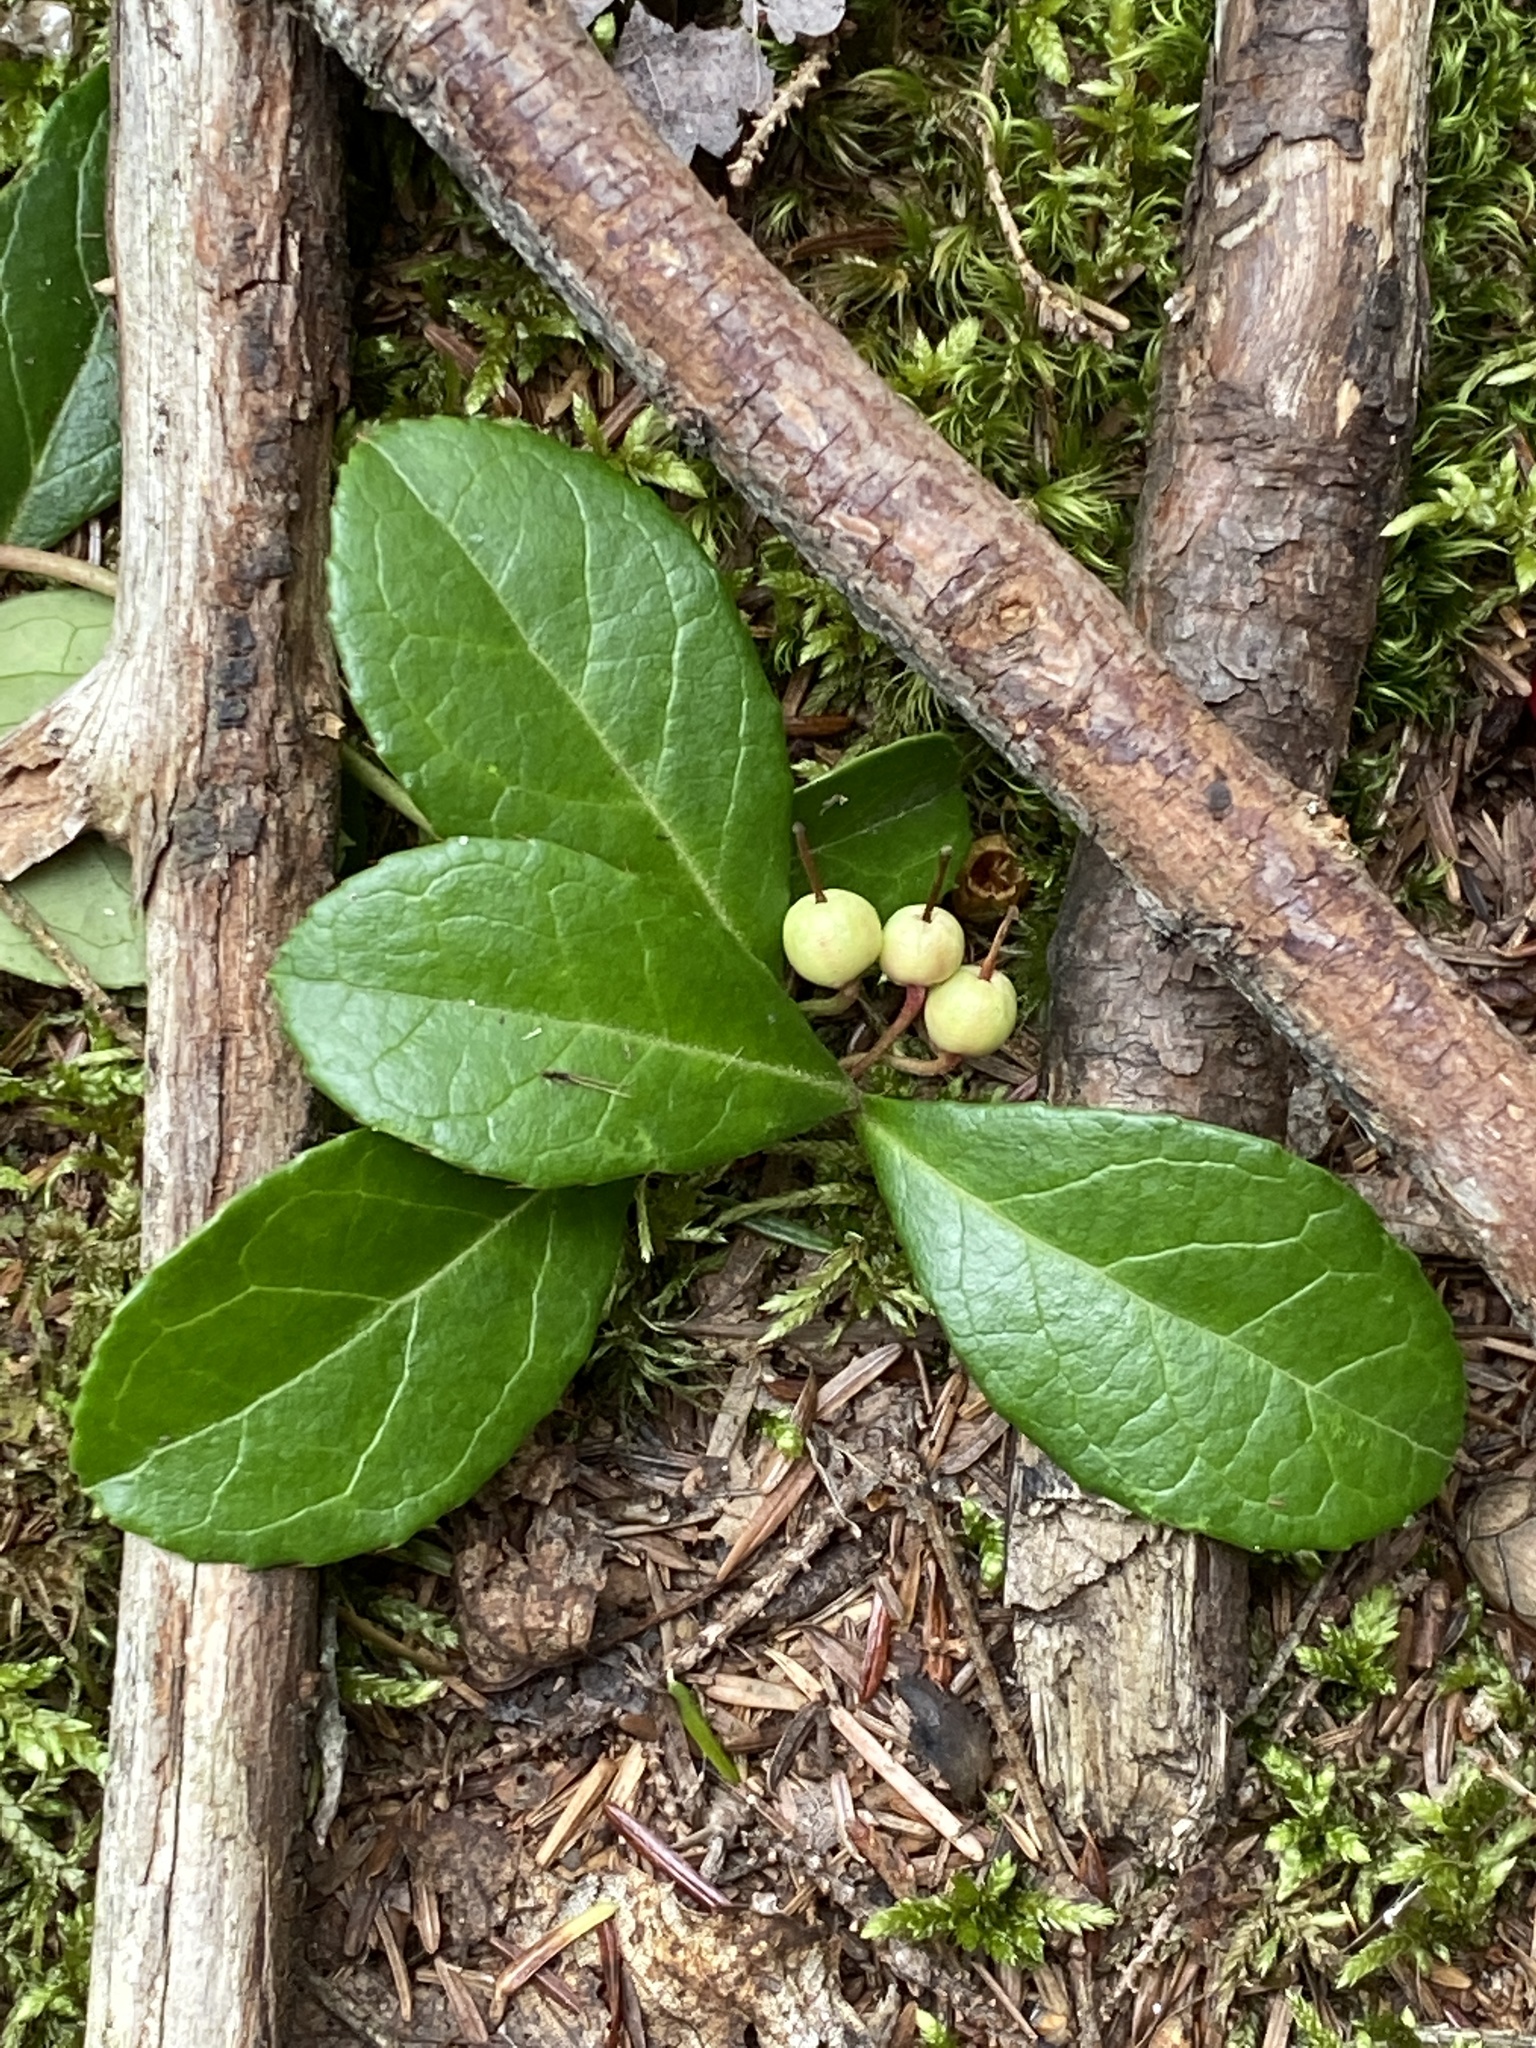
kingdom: Plantae
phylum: Tracheophyta
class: Magnoliopsida
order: Ericales
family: Ericaceae
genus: Gaultheria
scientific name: Gaultheria procumbens
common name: Checkerberry
